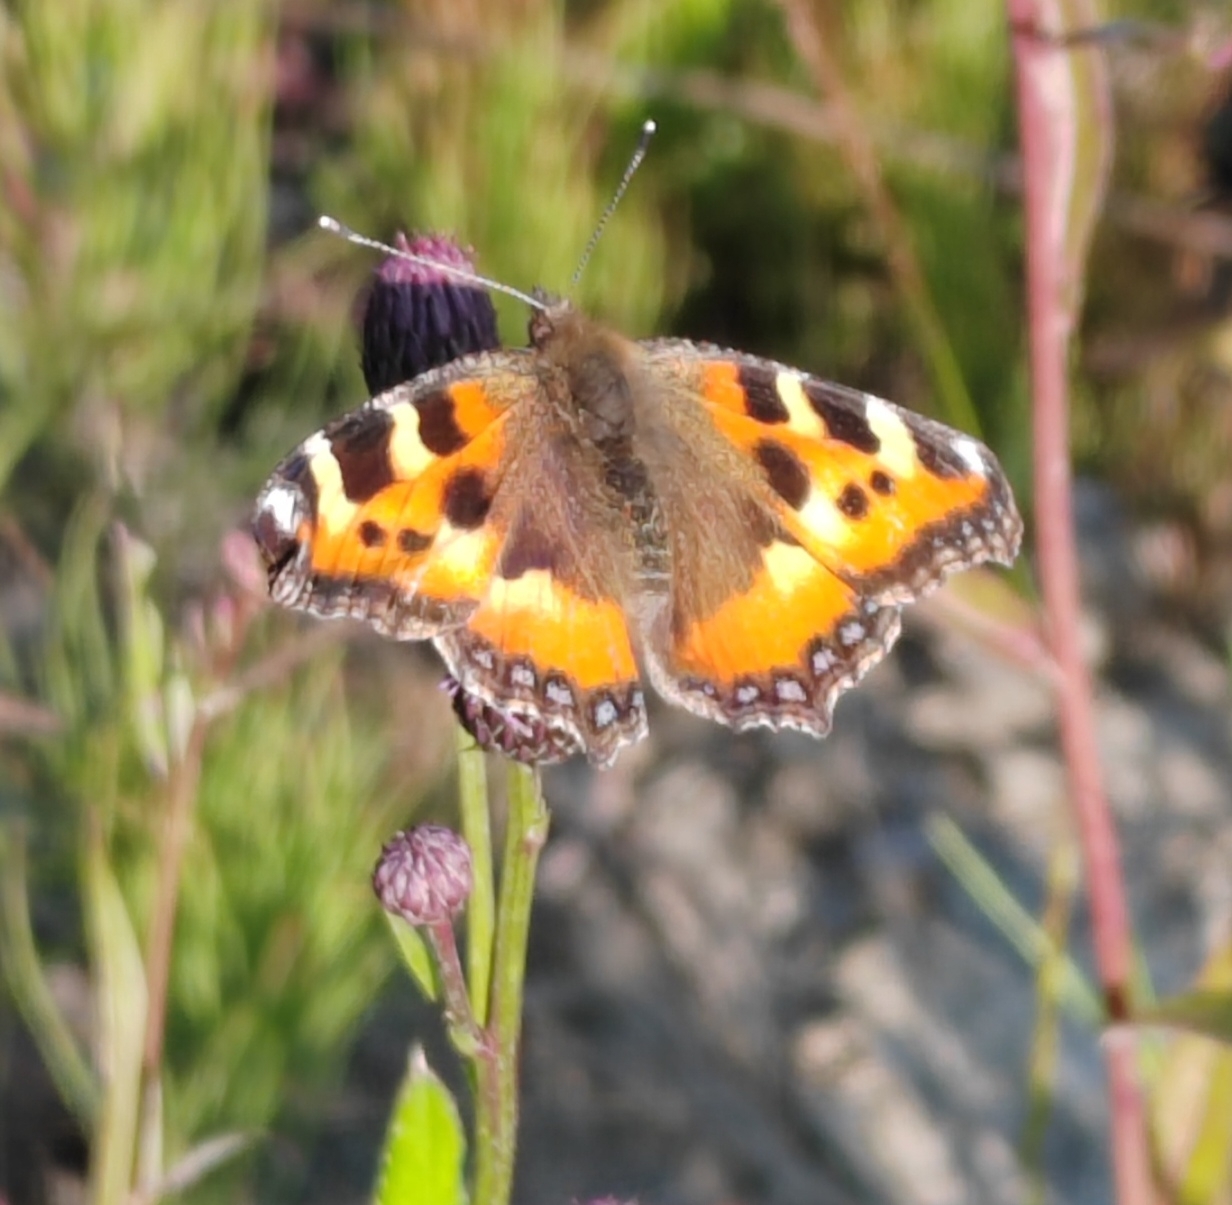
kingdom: Animalia
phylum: Arthropoda
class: Insecta
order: Lepidoptera
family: Nymphalidae
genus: Aglais
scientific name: Aglais urticae
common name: Small tortoiseshell
